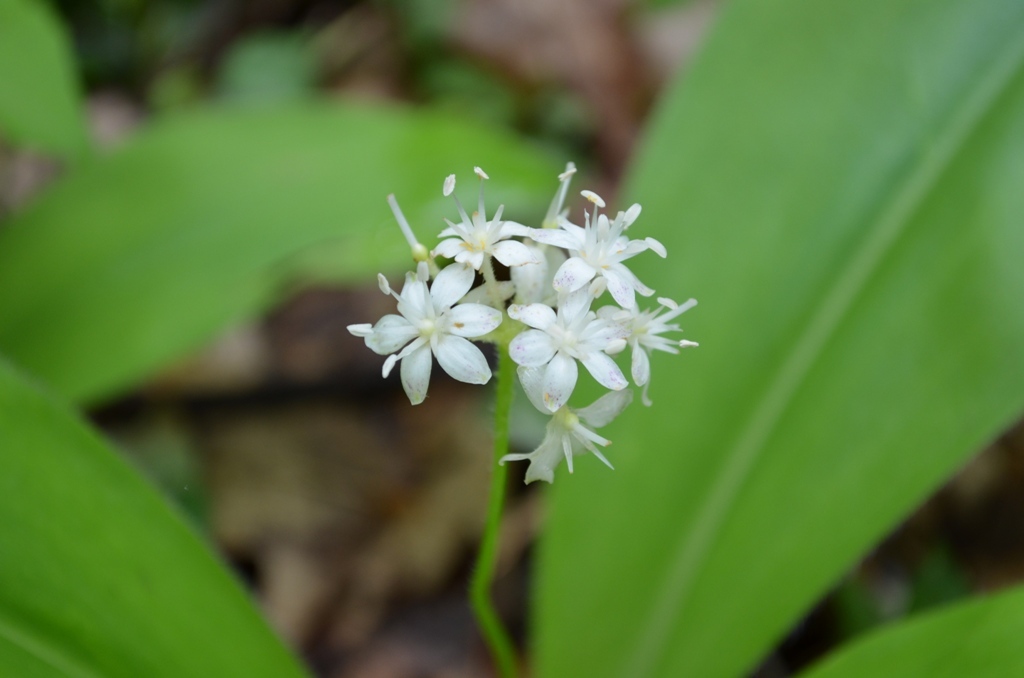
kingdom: Plantae
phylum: Tracheophyta
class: Liliopsida
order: Liliales
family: Liliaceae
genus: Clintonia
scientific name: Clintonia umbellulata
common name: Speckle wood-lily
